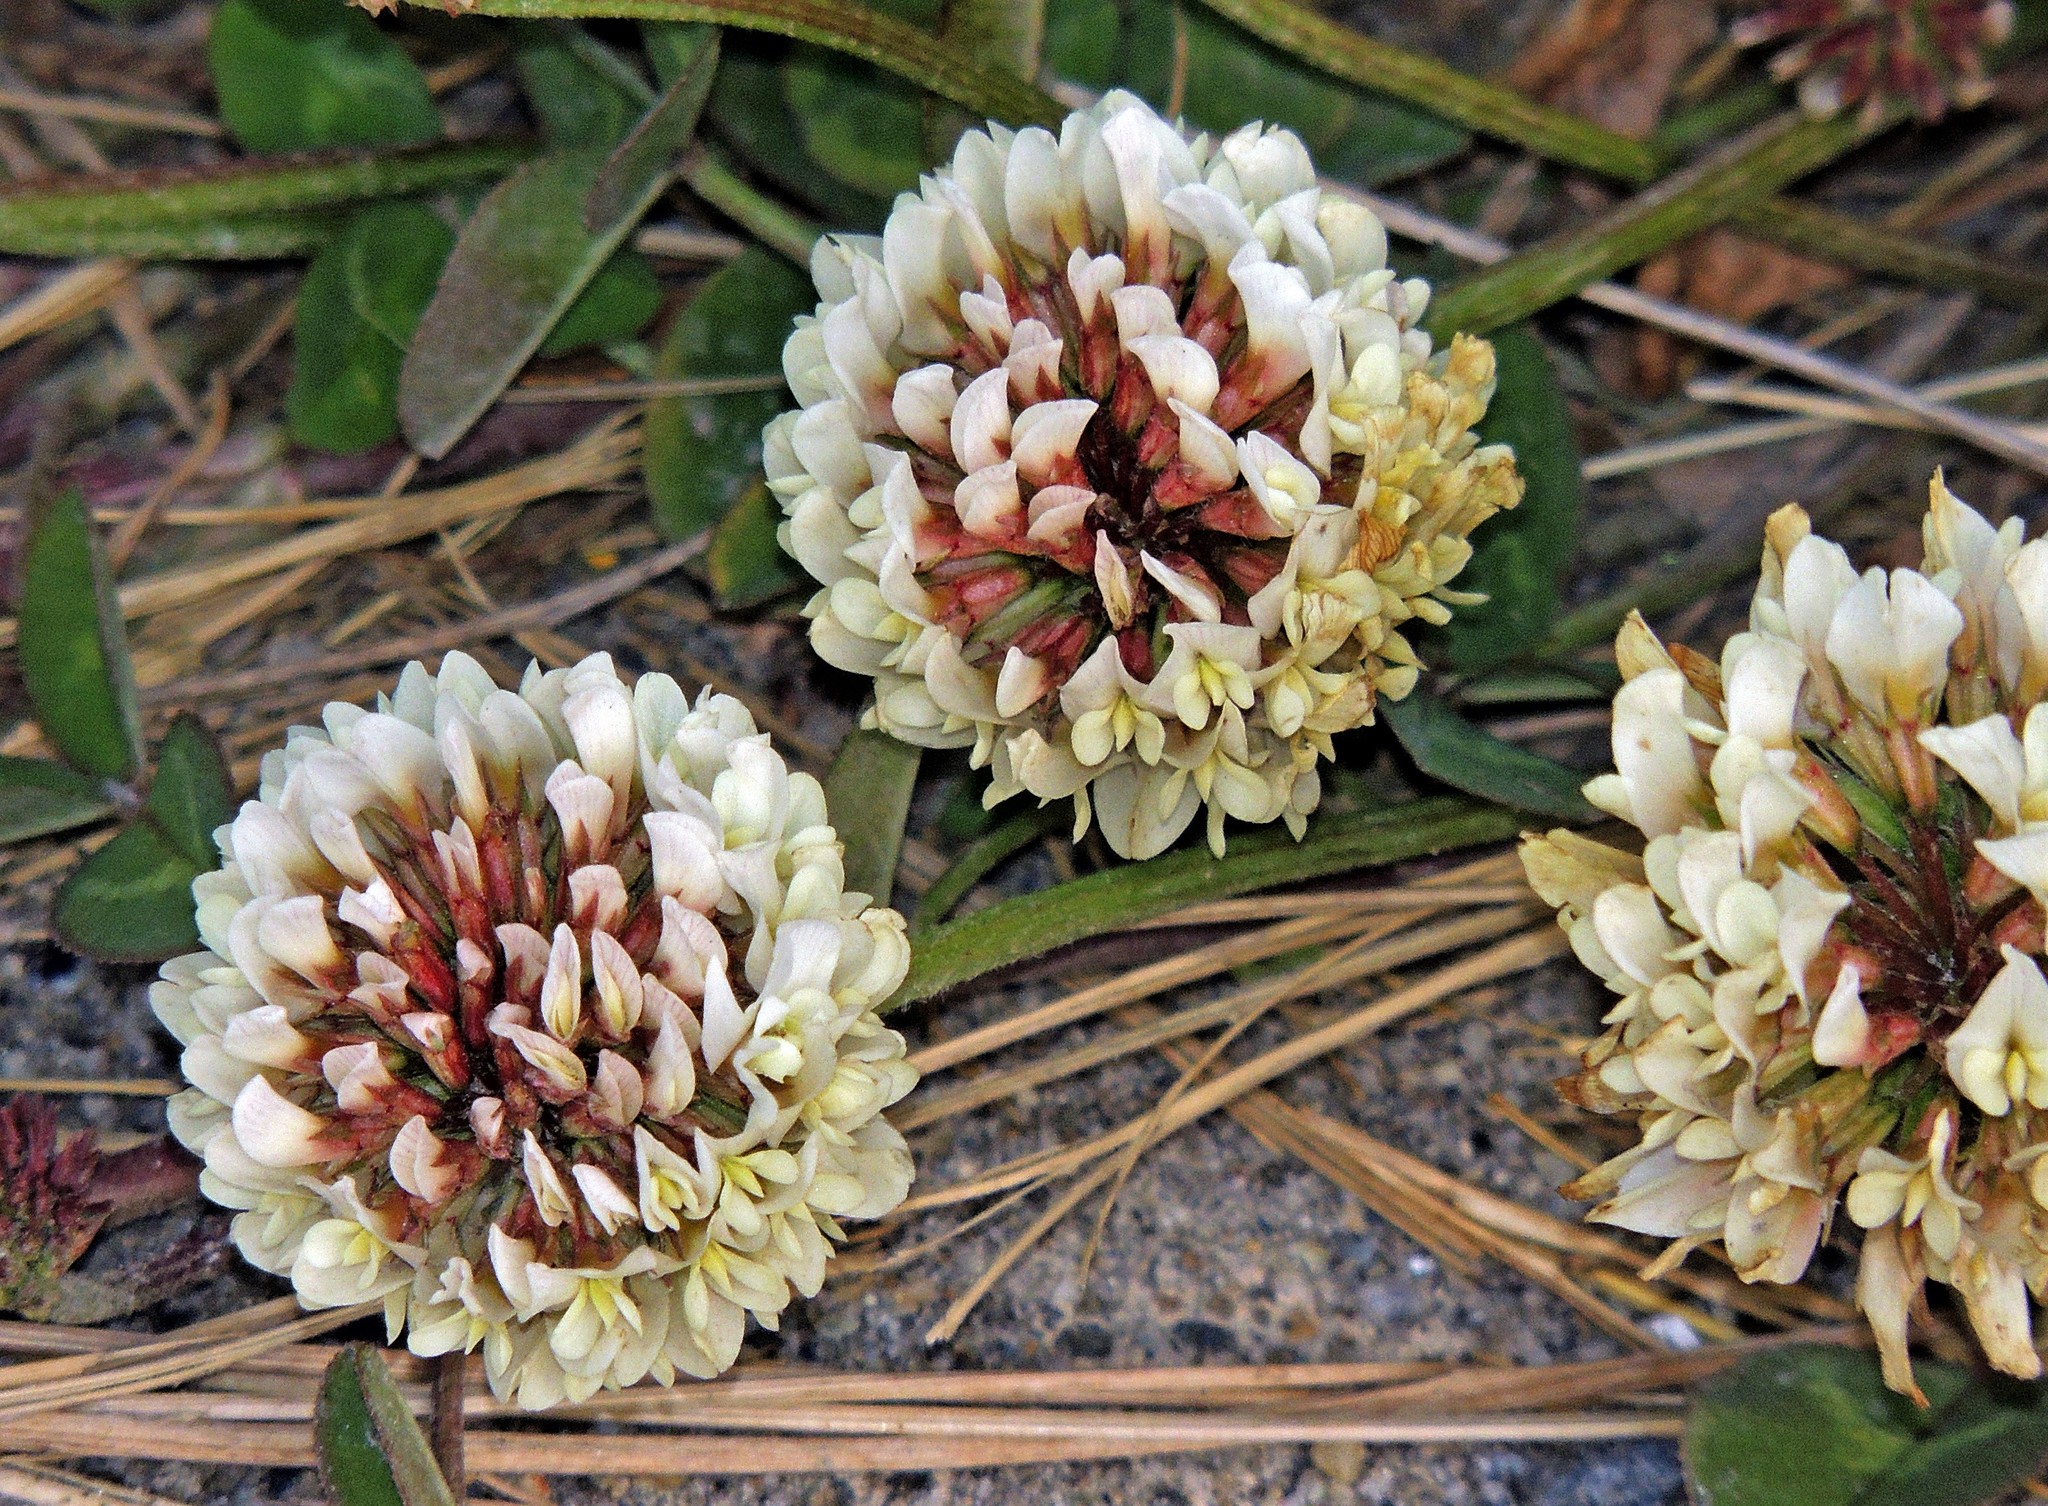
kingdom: Plantae
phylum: Tracheophyta
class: Magnoliopsida
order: Fabales
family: Fabaceae
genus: Trifolium
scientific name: Trifolium repens
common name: White clover
